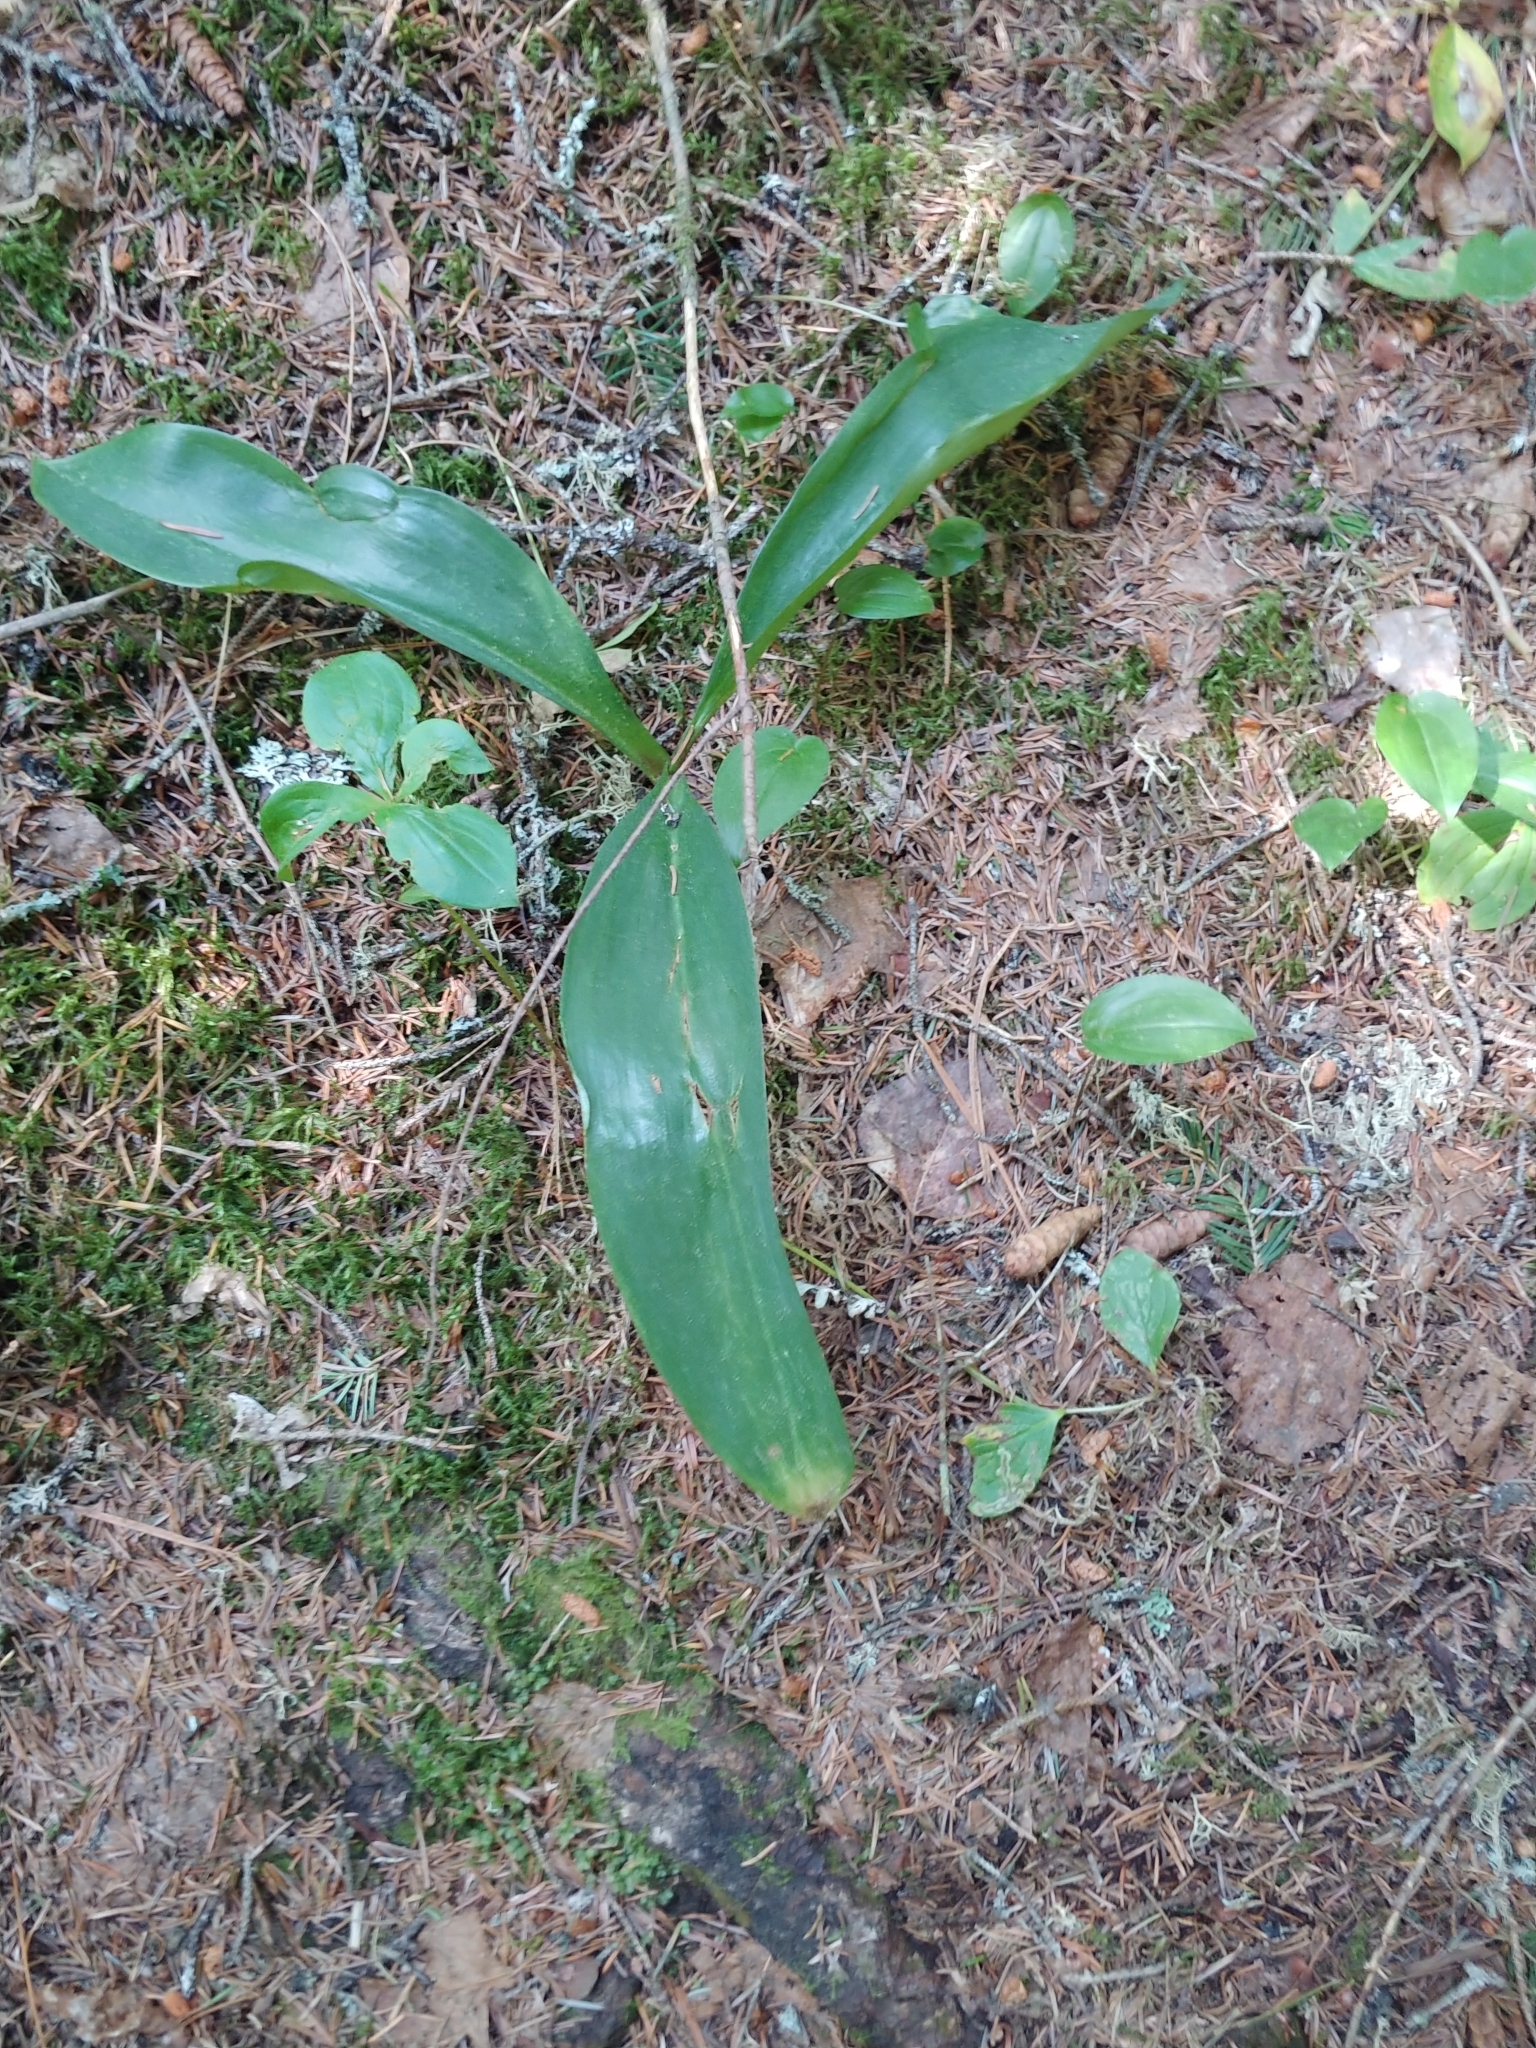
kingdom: Plantae
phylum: Tracheophyta
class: Liliopsida
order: Liliales
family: Liliaceae
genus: Clintonia
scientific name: Clintonia borealis
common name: Yellow clintonia
